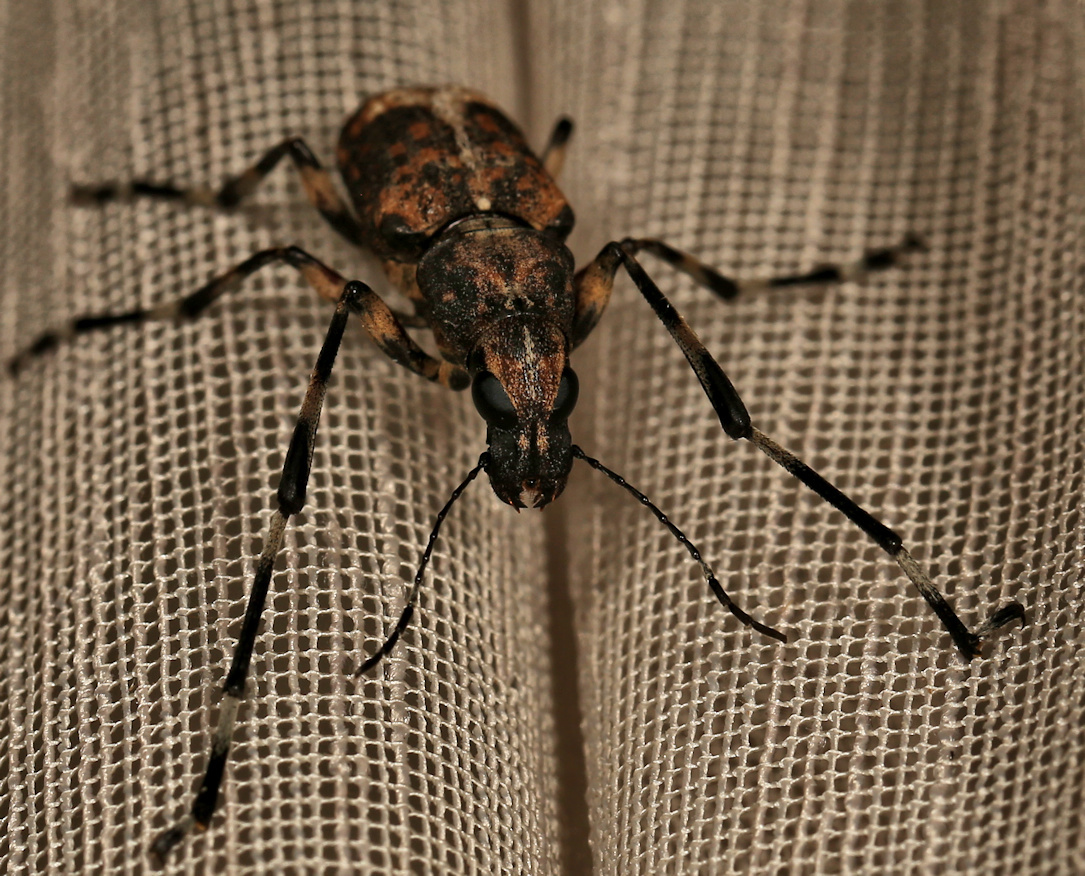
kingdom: Animalia
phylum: Arthropoda
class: Insecta
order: Coleoptera
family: Anthribidae
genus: Chirotenon
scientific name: Chirotenon longimanum
